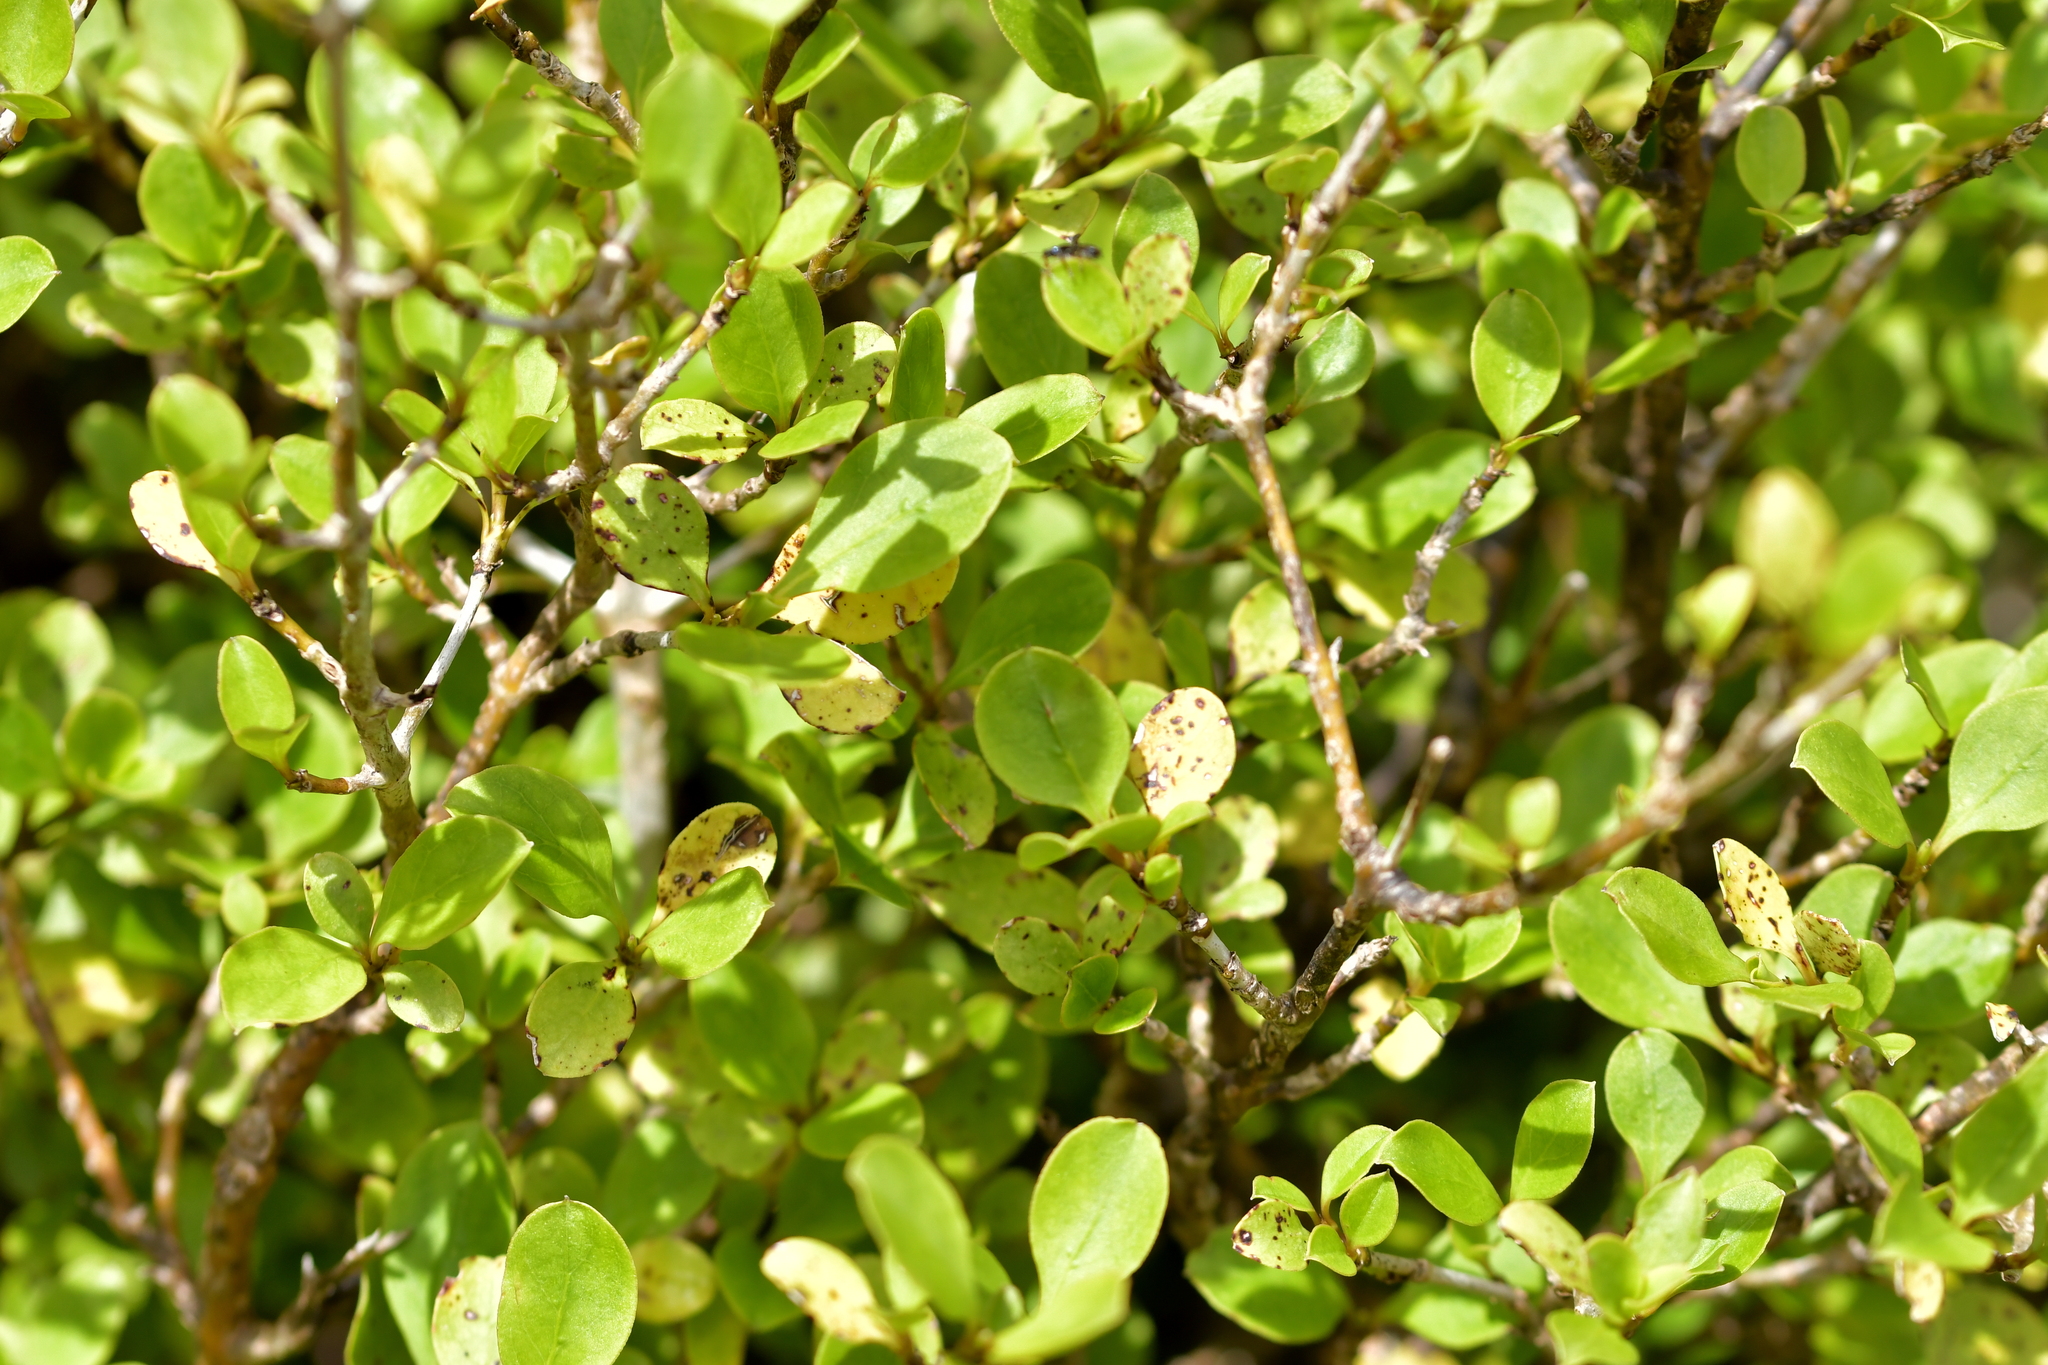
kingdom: Plantae
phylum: Tracheophyta
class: Magnoliopsida
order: Gentianales
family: Rubiaceae
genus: Coprosma
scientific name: Coprosma foetidissima
